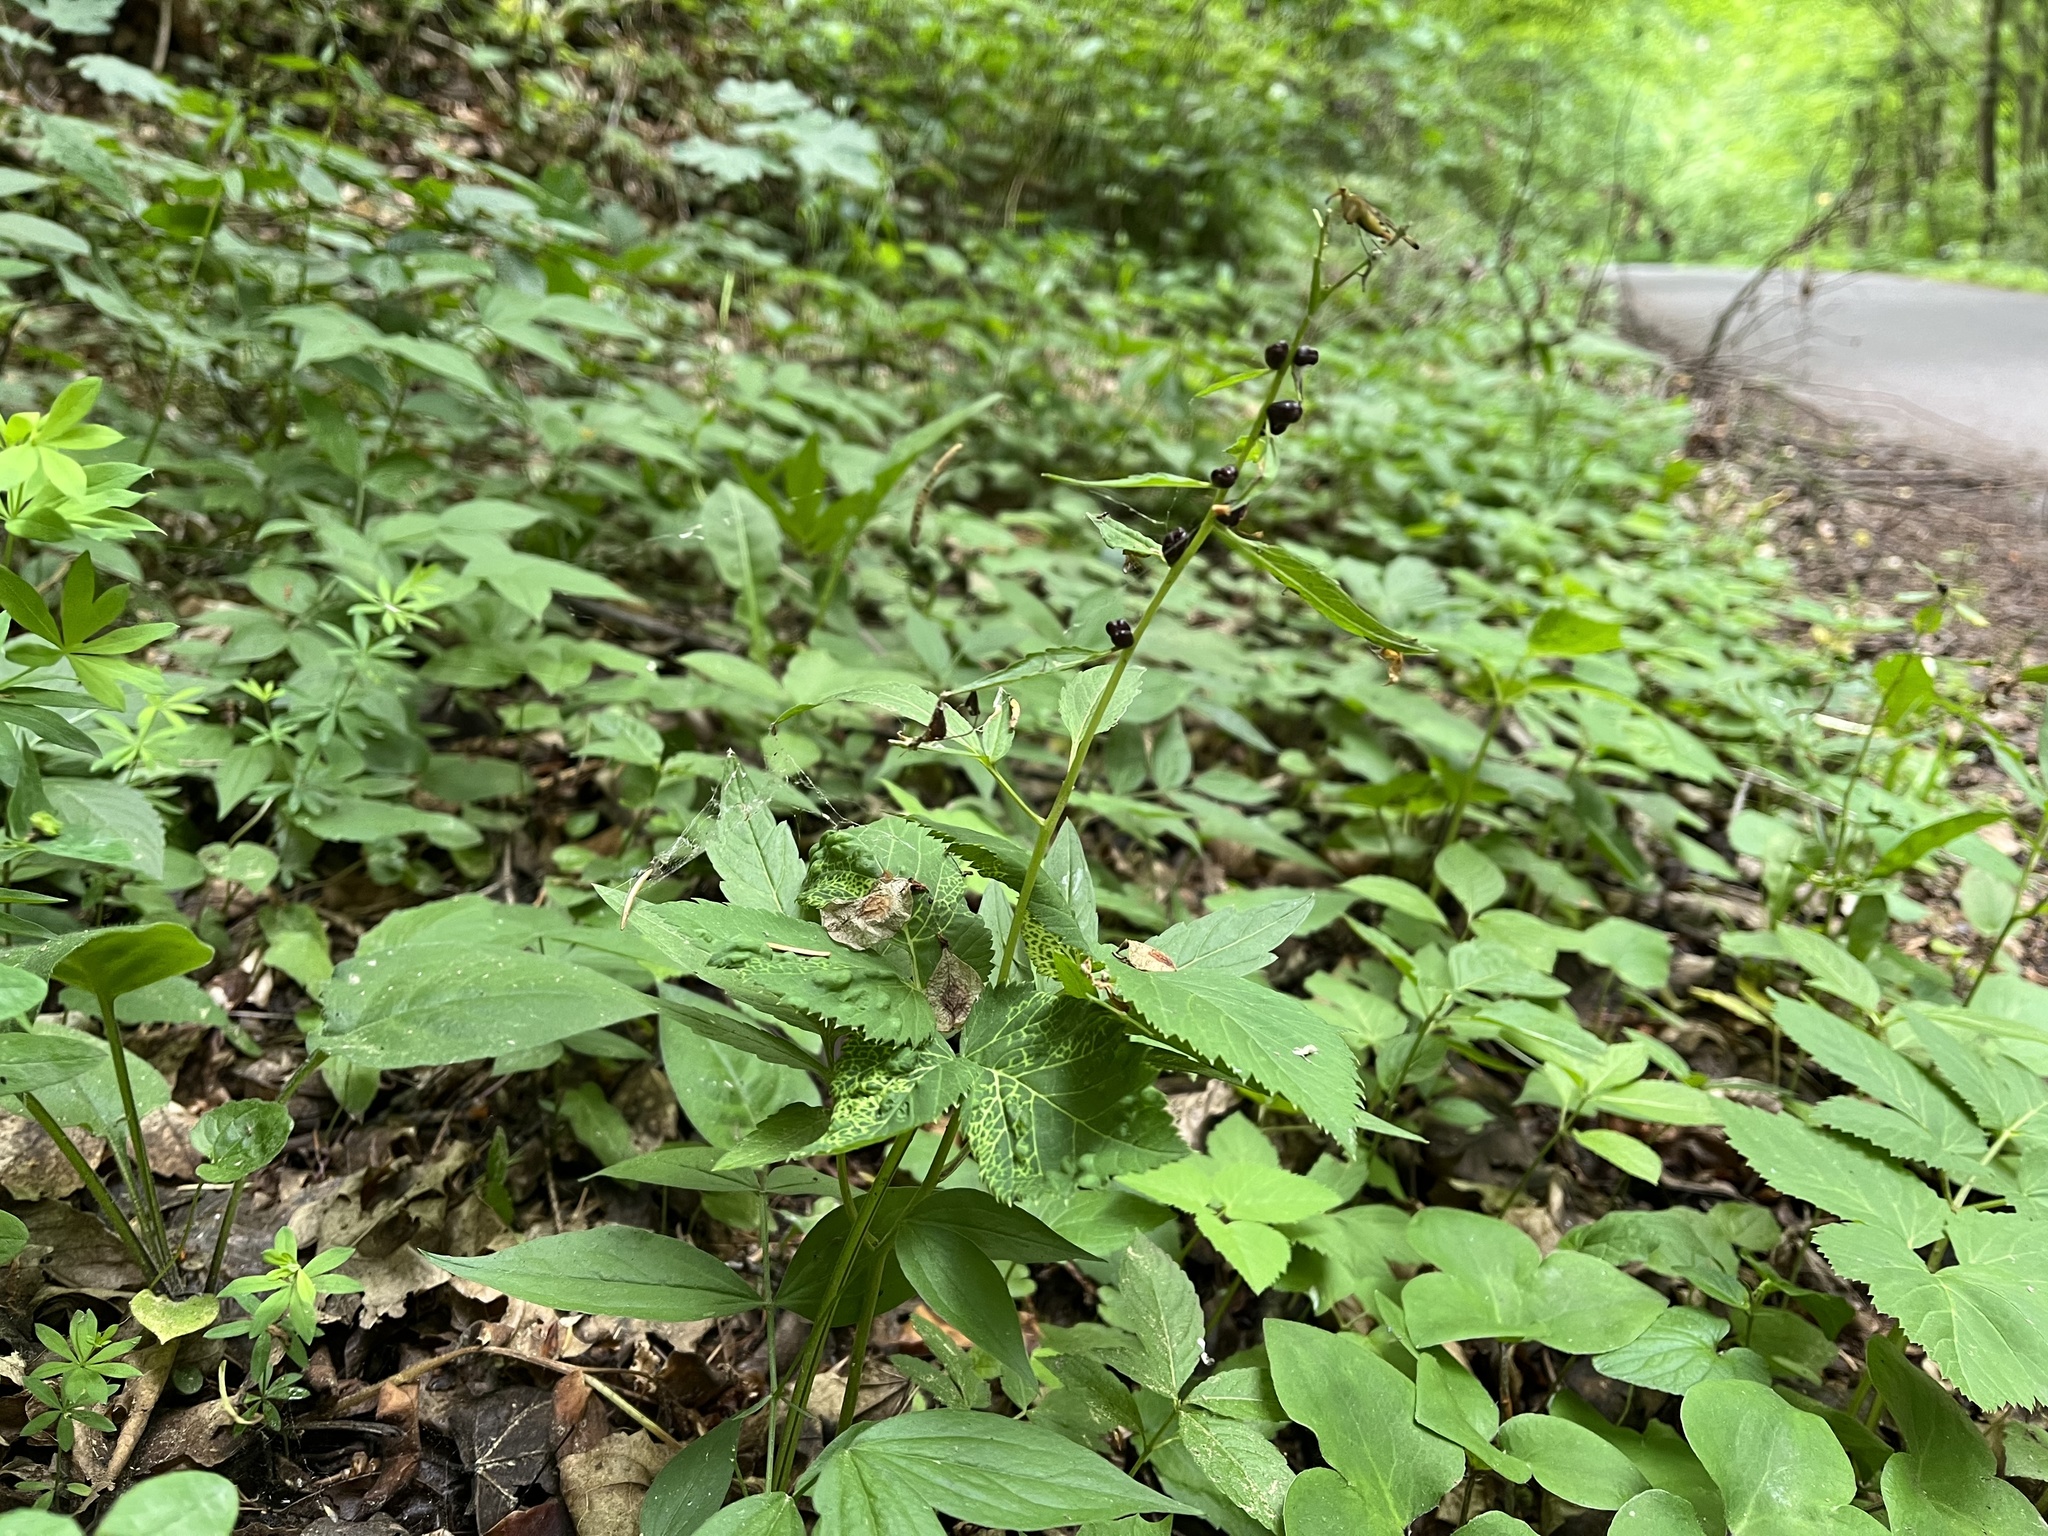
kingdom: Plantae
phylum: Tracheophyta
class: Magnoliopsida
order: Brassicales
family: Brassicaceae
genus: Cardamine
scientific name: Cardamine bulbifera
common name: Coralroot bittercress
